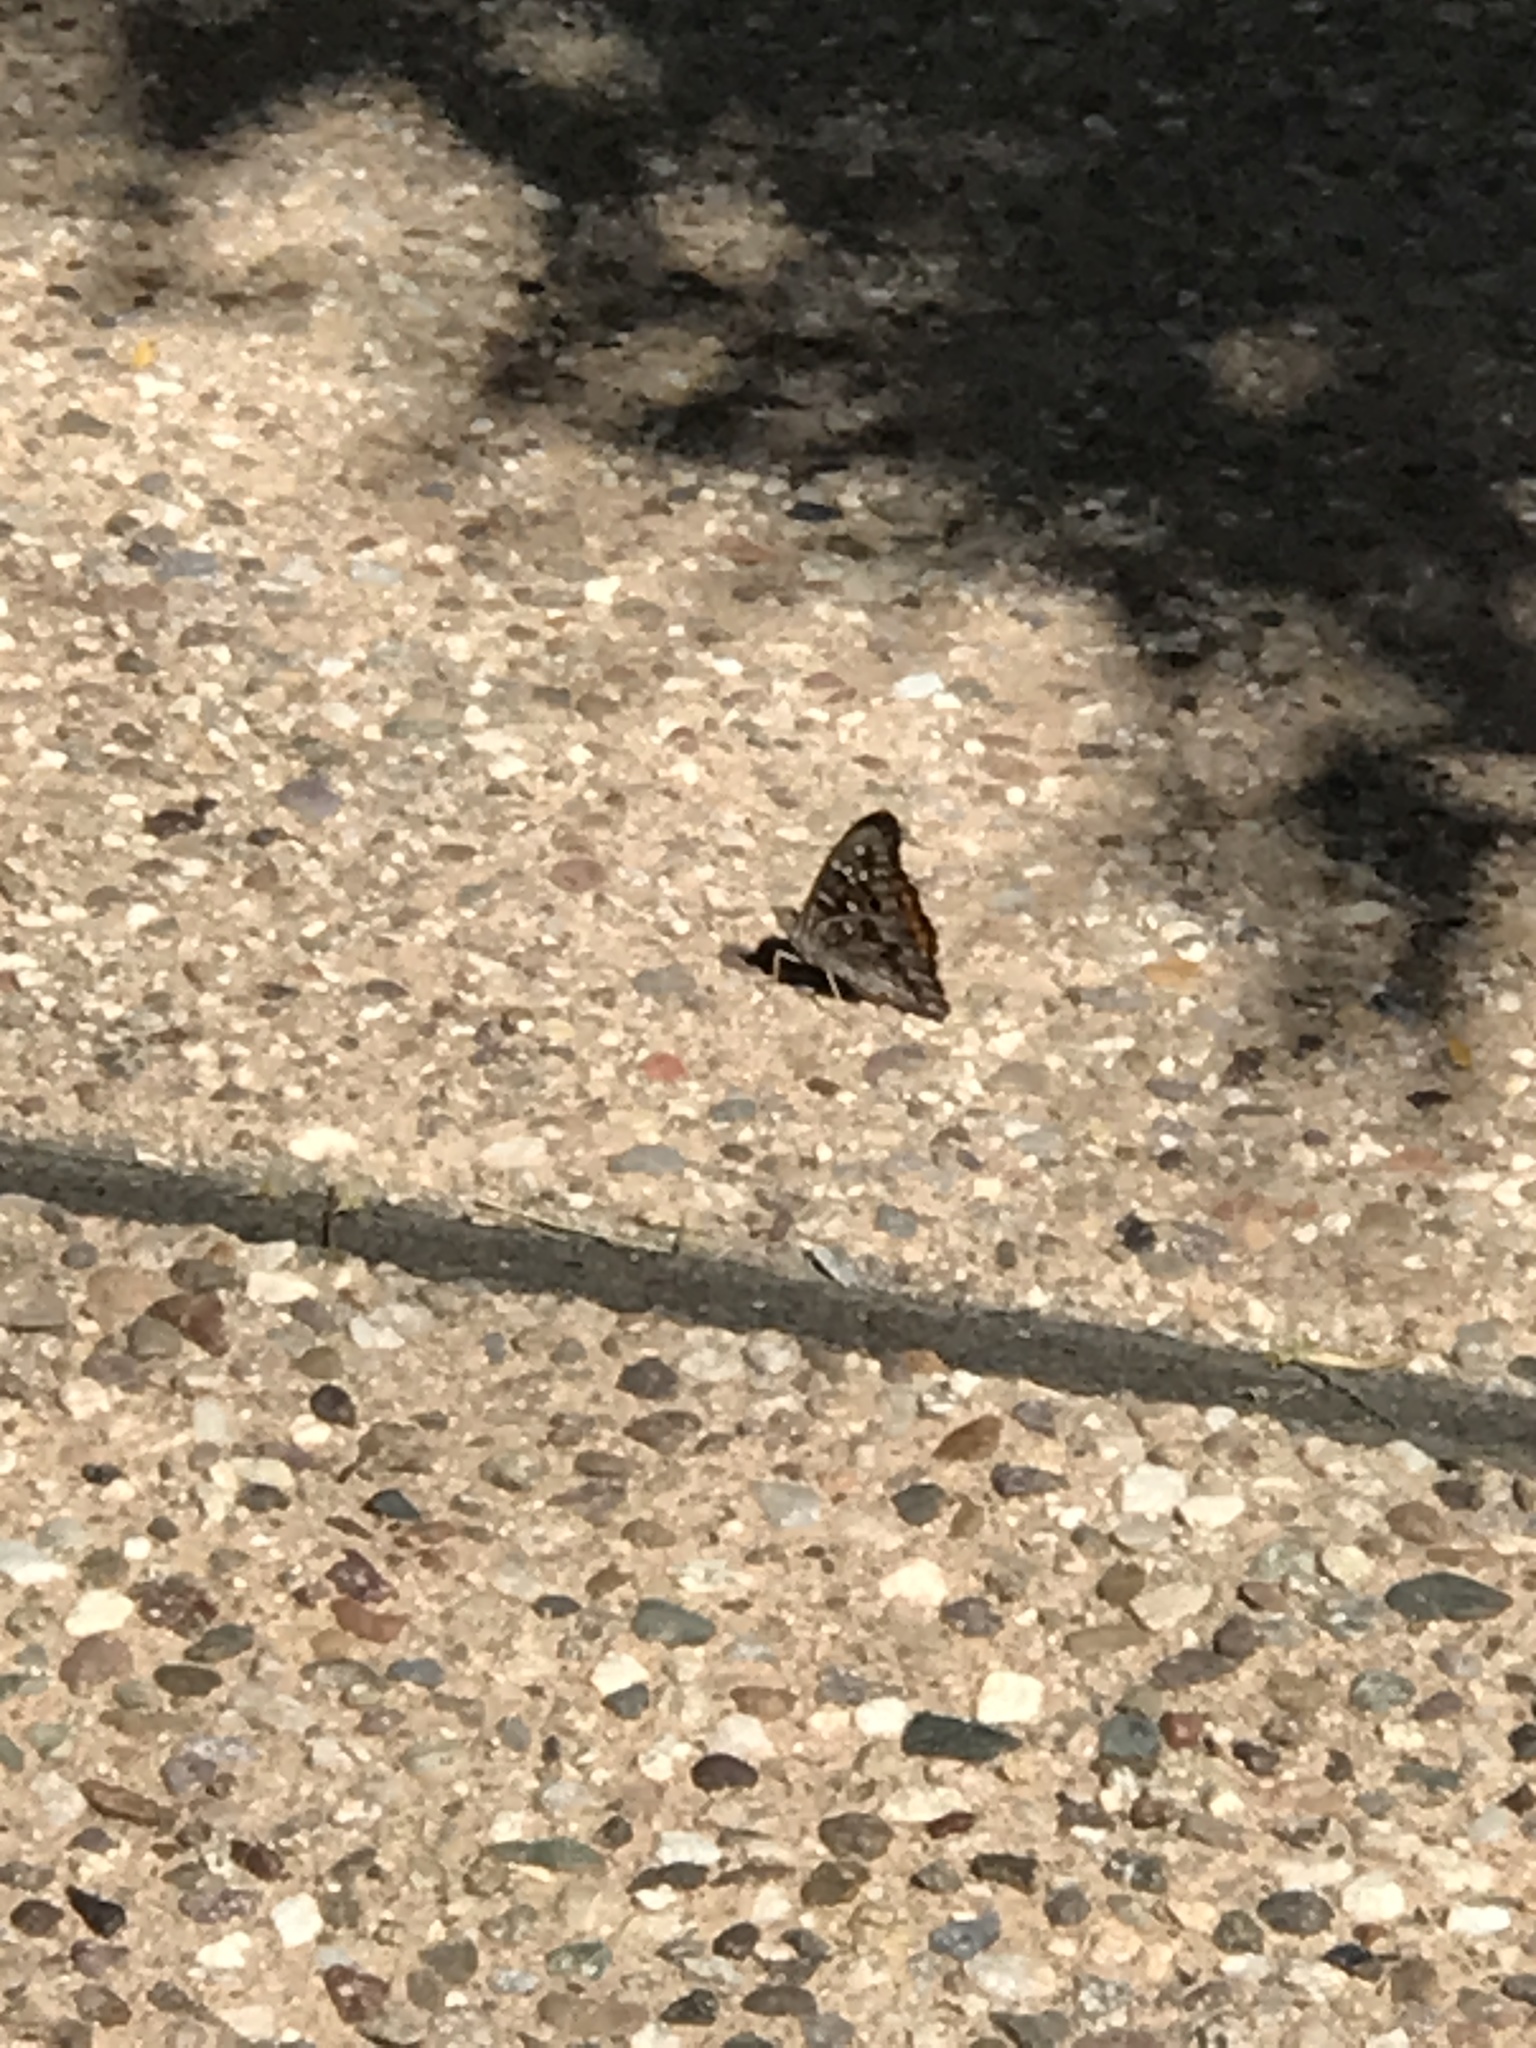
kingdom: Animalia
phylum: Arthropoda
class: Insecta
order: Lepidoptera
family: Nymphalidae
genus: Asterocampa
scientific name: Asterocampa leilia
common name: Empress leilia
